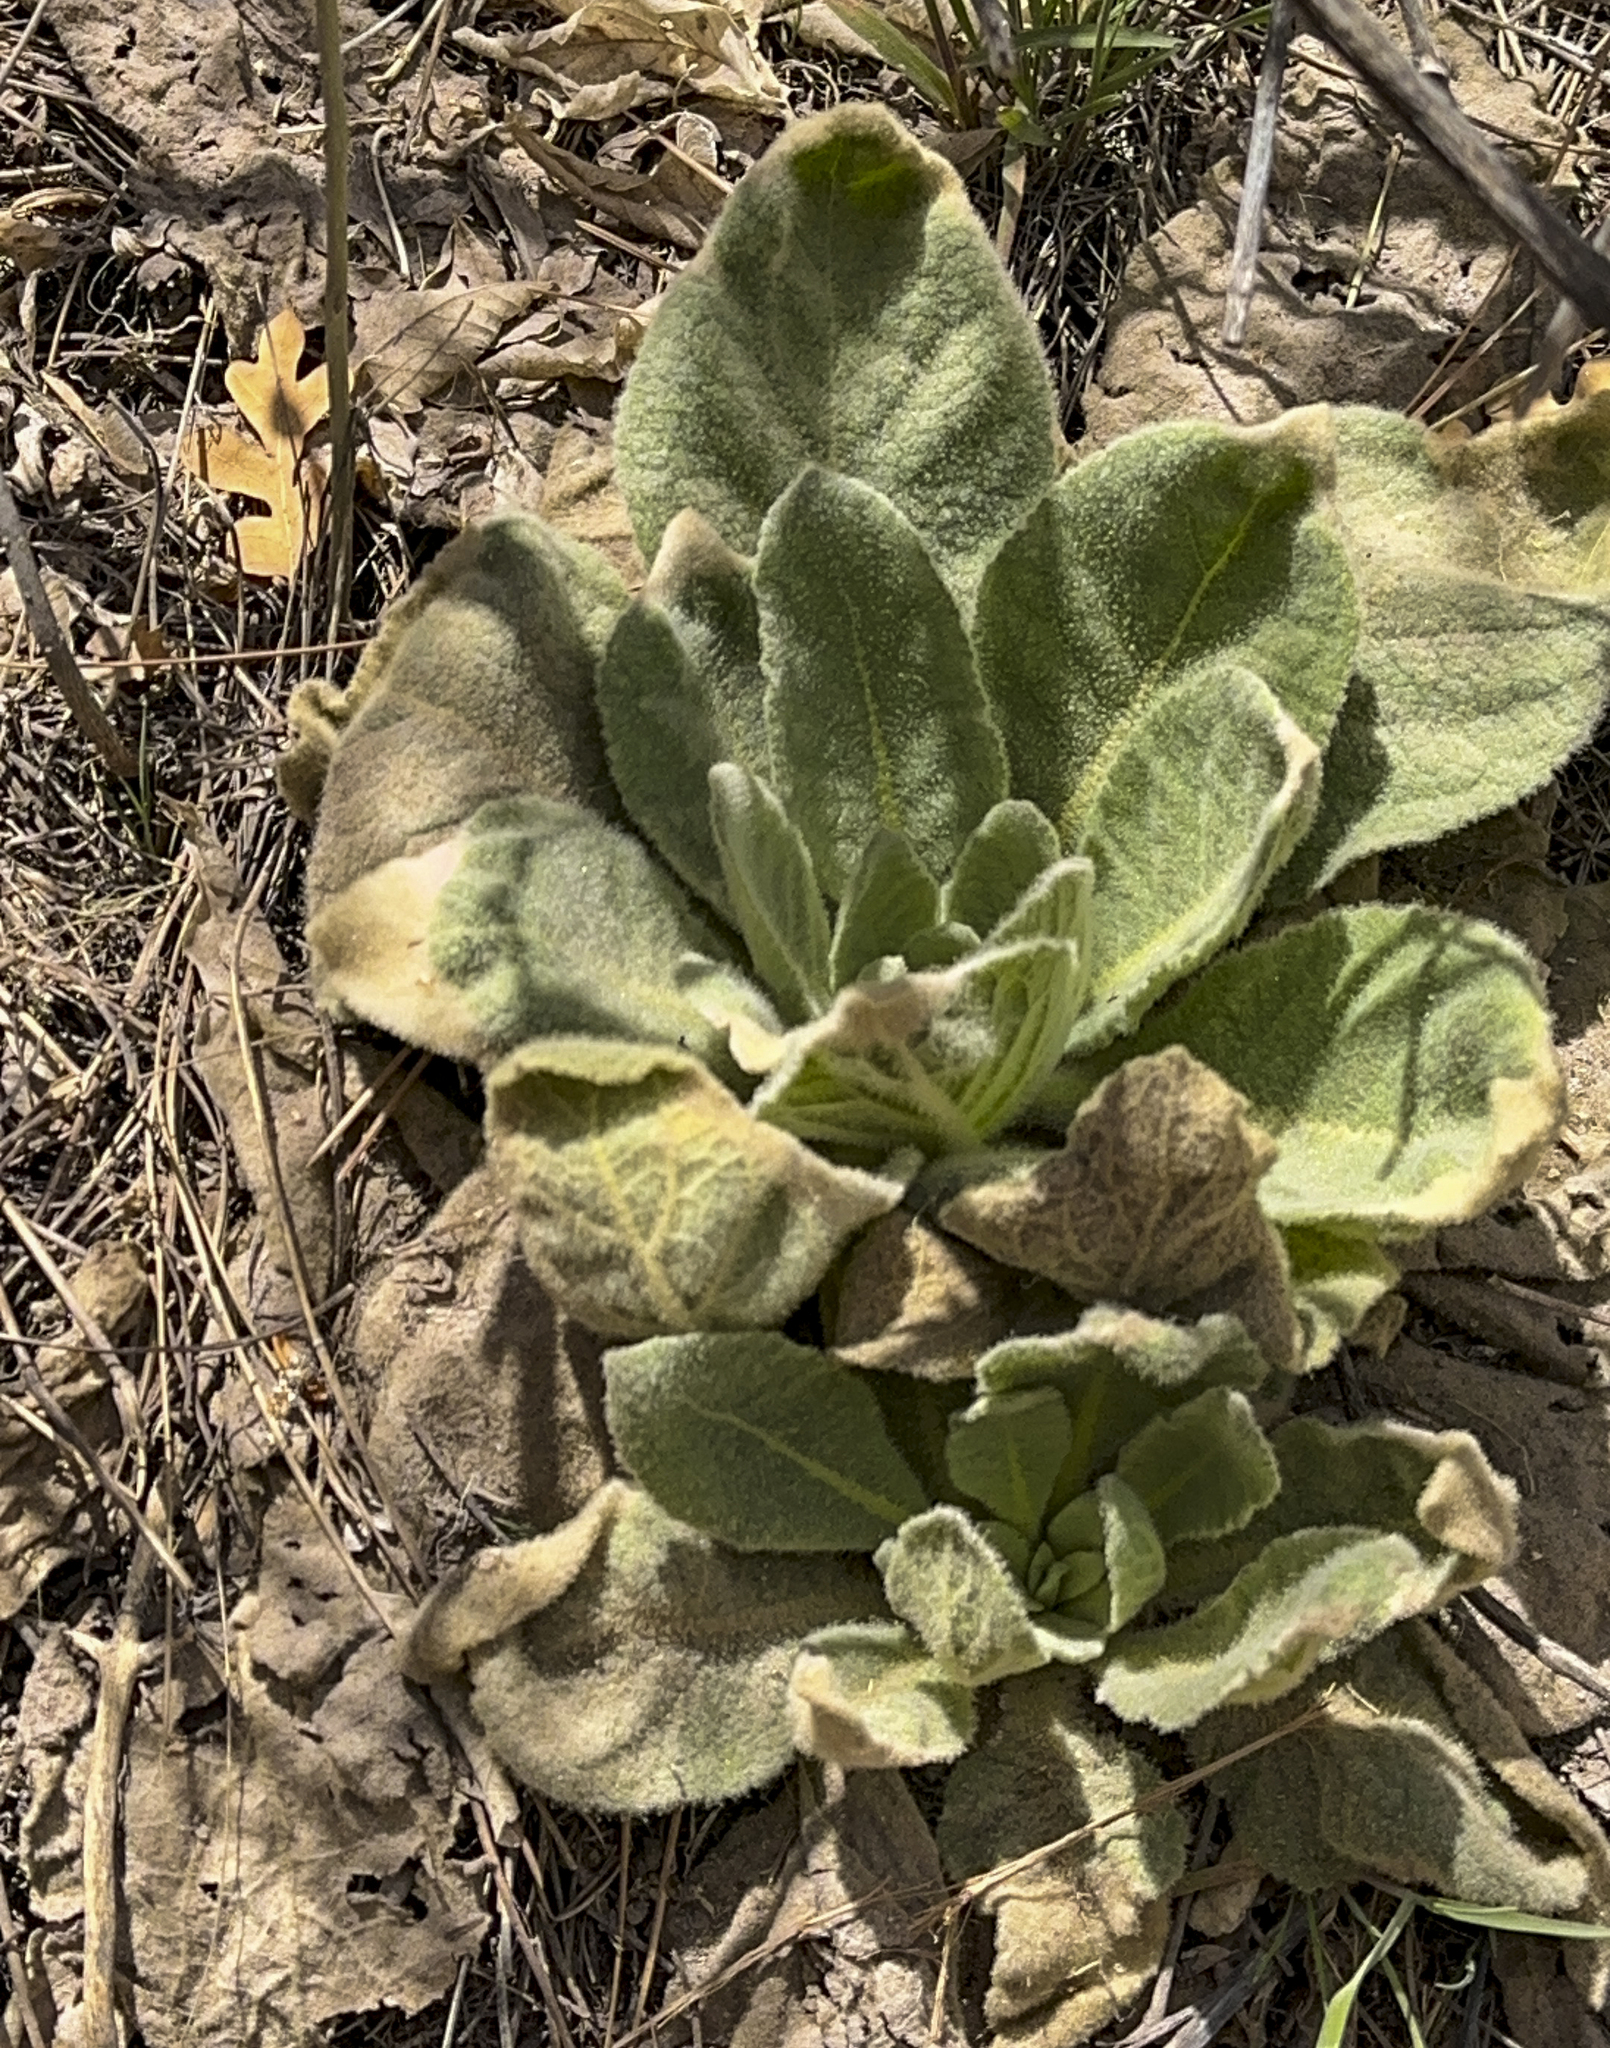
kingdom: Plantae
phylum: Tracheophyta
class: Magnoliopsida
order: Lamiales
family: Scrophulariaceae
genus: Verbascum
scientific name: Verbascum thapsus
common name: Common mullein
